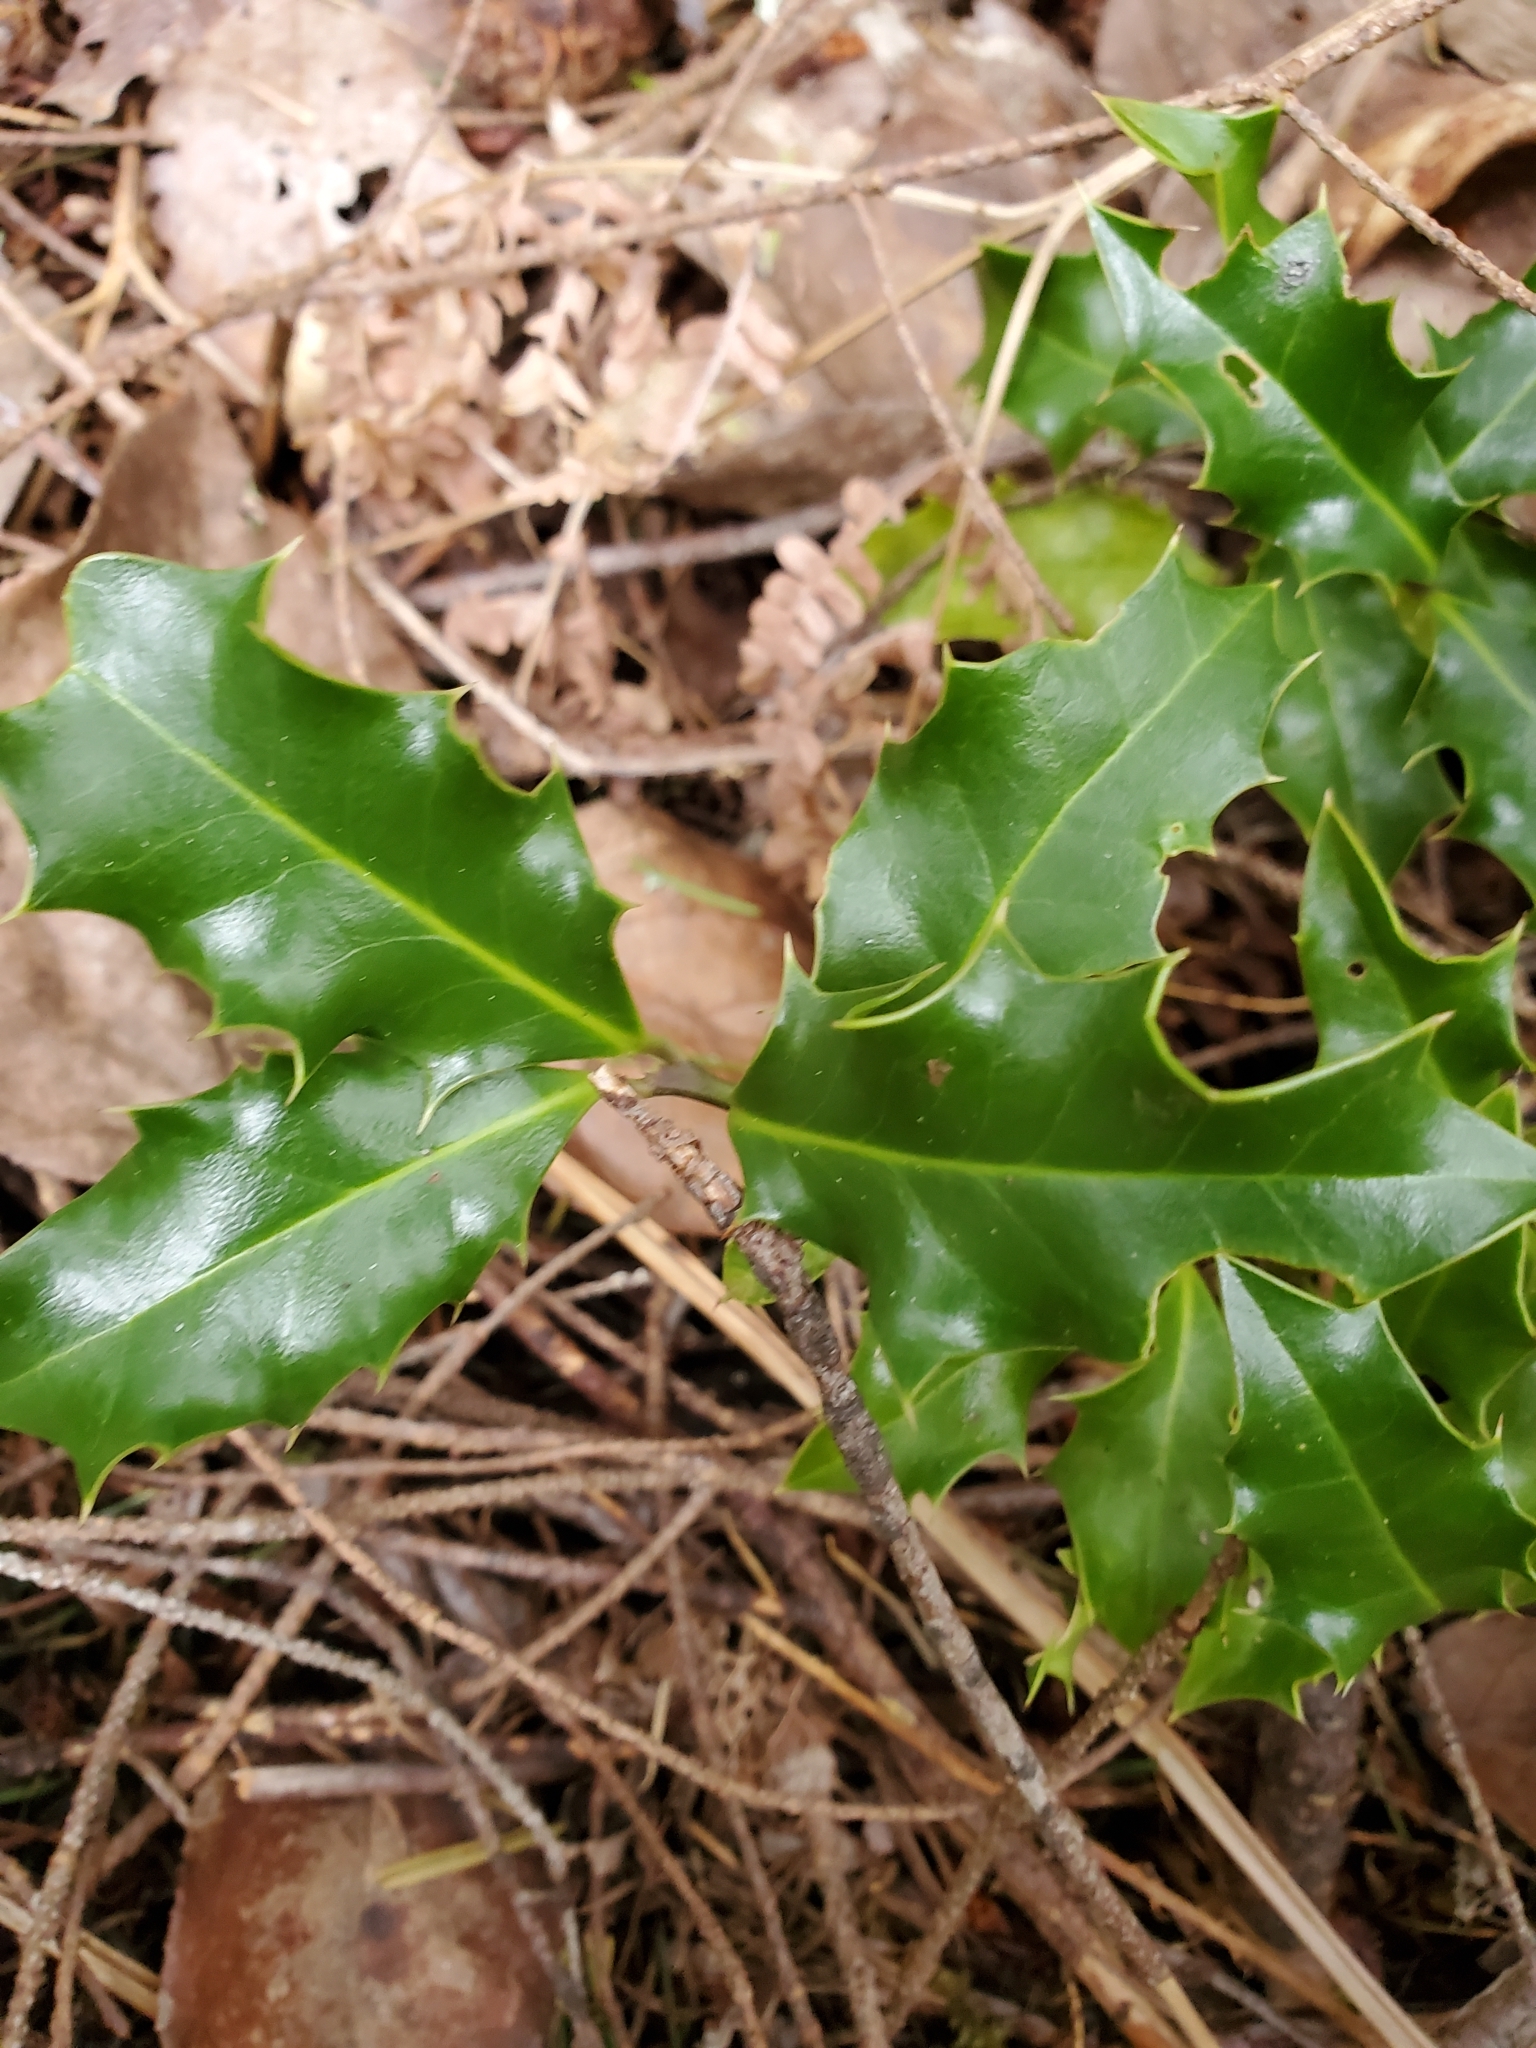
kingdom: Plantae
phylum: Tracheophyta
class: Magnoliopsida
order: Aquifoliales
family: Aquifoliaceae
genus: Ilex
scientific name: Ilex aquifolium
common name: English holly
